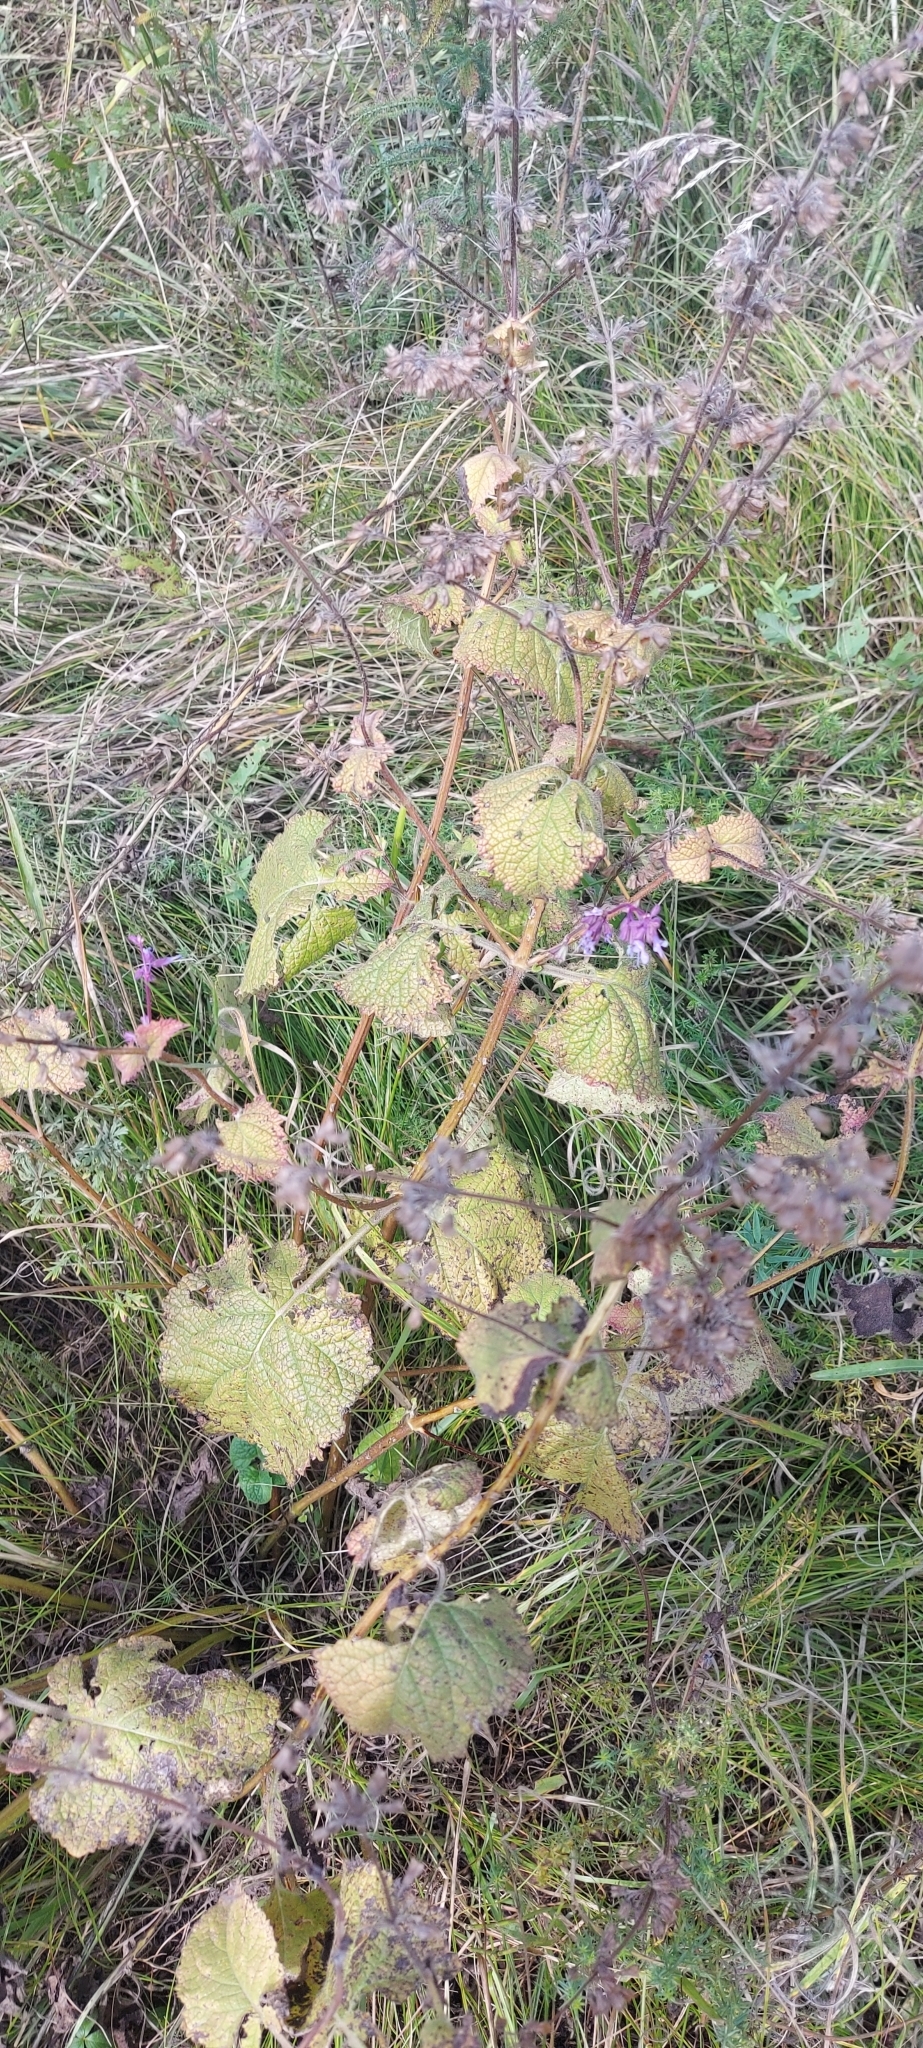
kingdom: Plantae
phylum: Tracheophyta
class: Magnoliopsida
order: Lamiales
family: Lamiaceae
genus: Salvia
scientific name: Salvia verticillata
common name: Whorled clary
